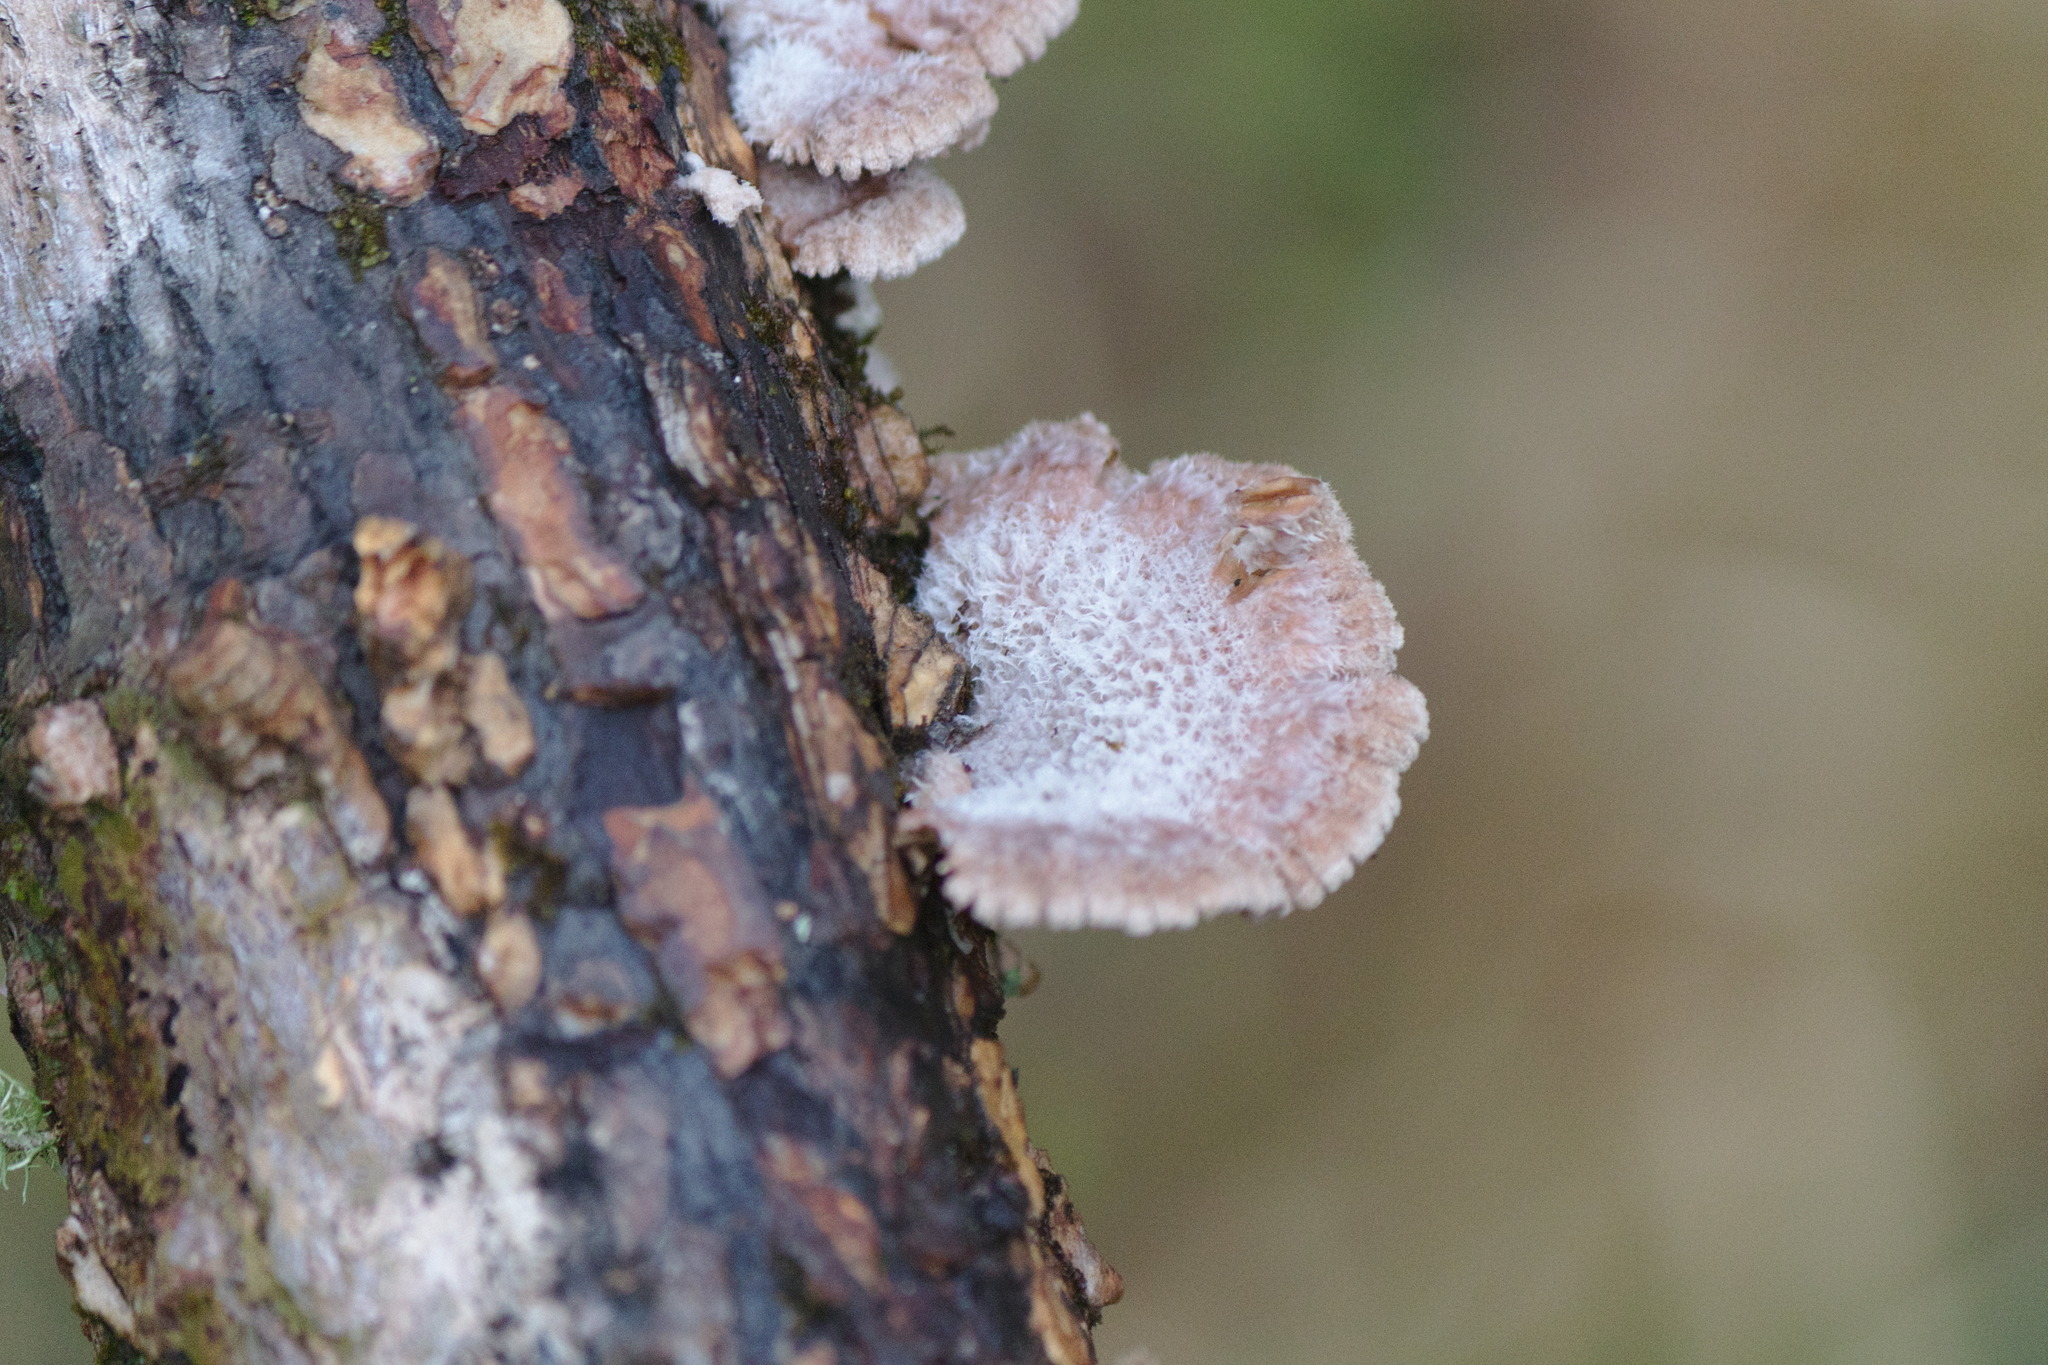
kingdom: Fungi
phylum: Basidiomycota
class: Agaricomycetes
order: Agaricales
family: Schizophyllaceae
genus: Schizophyllum
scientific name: Schizophyllum commune
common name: Common porecrust
